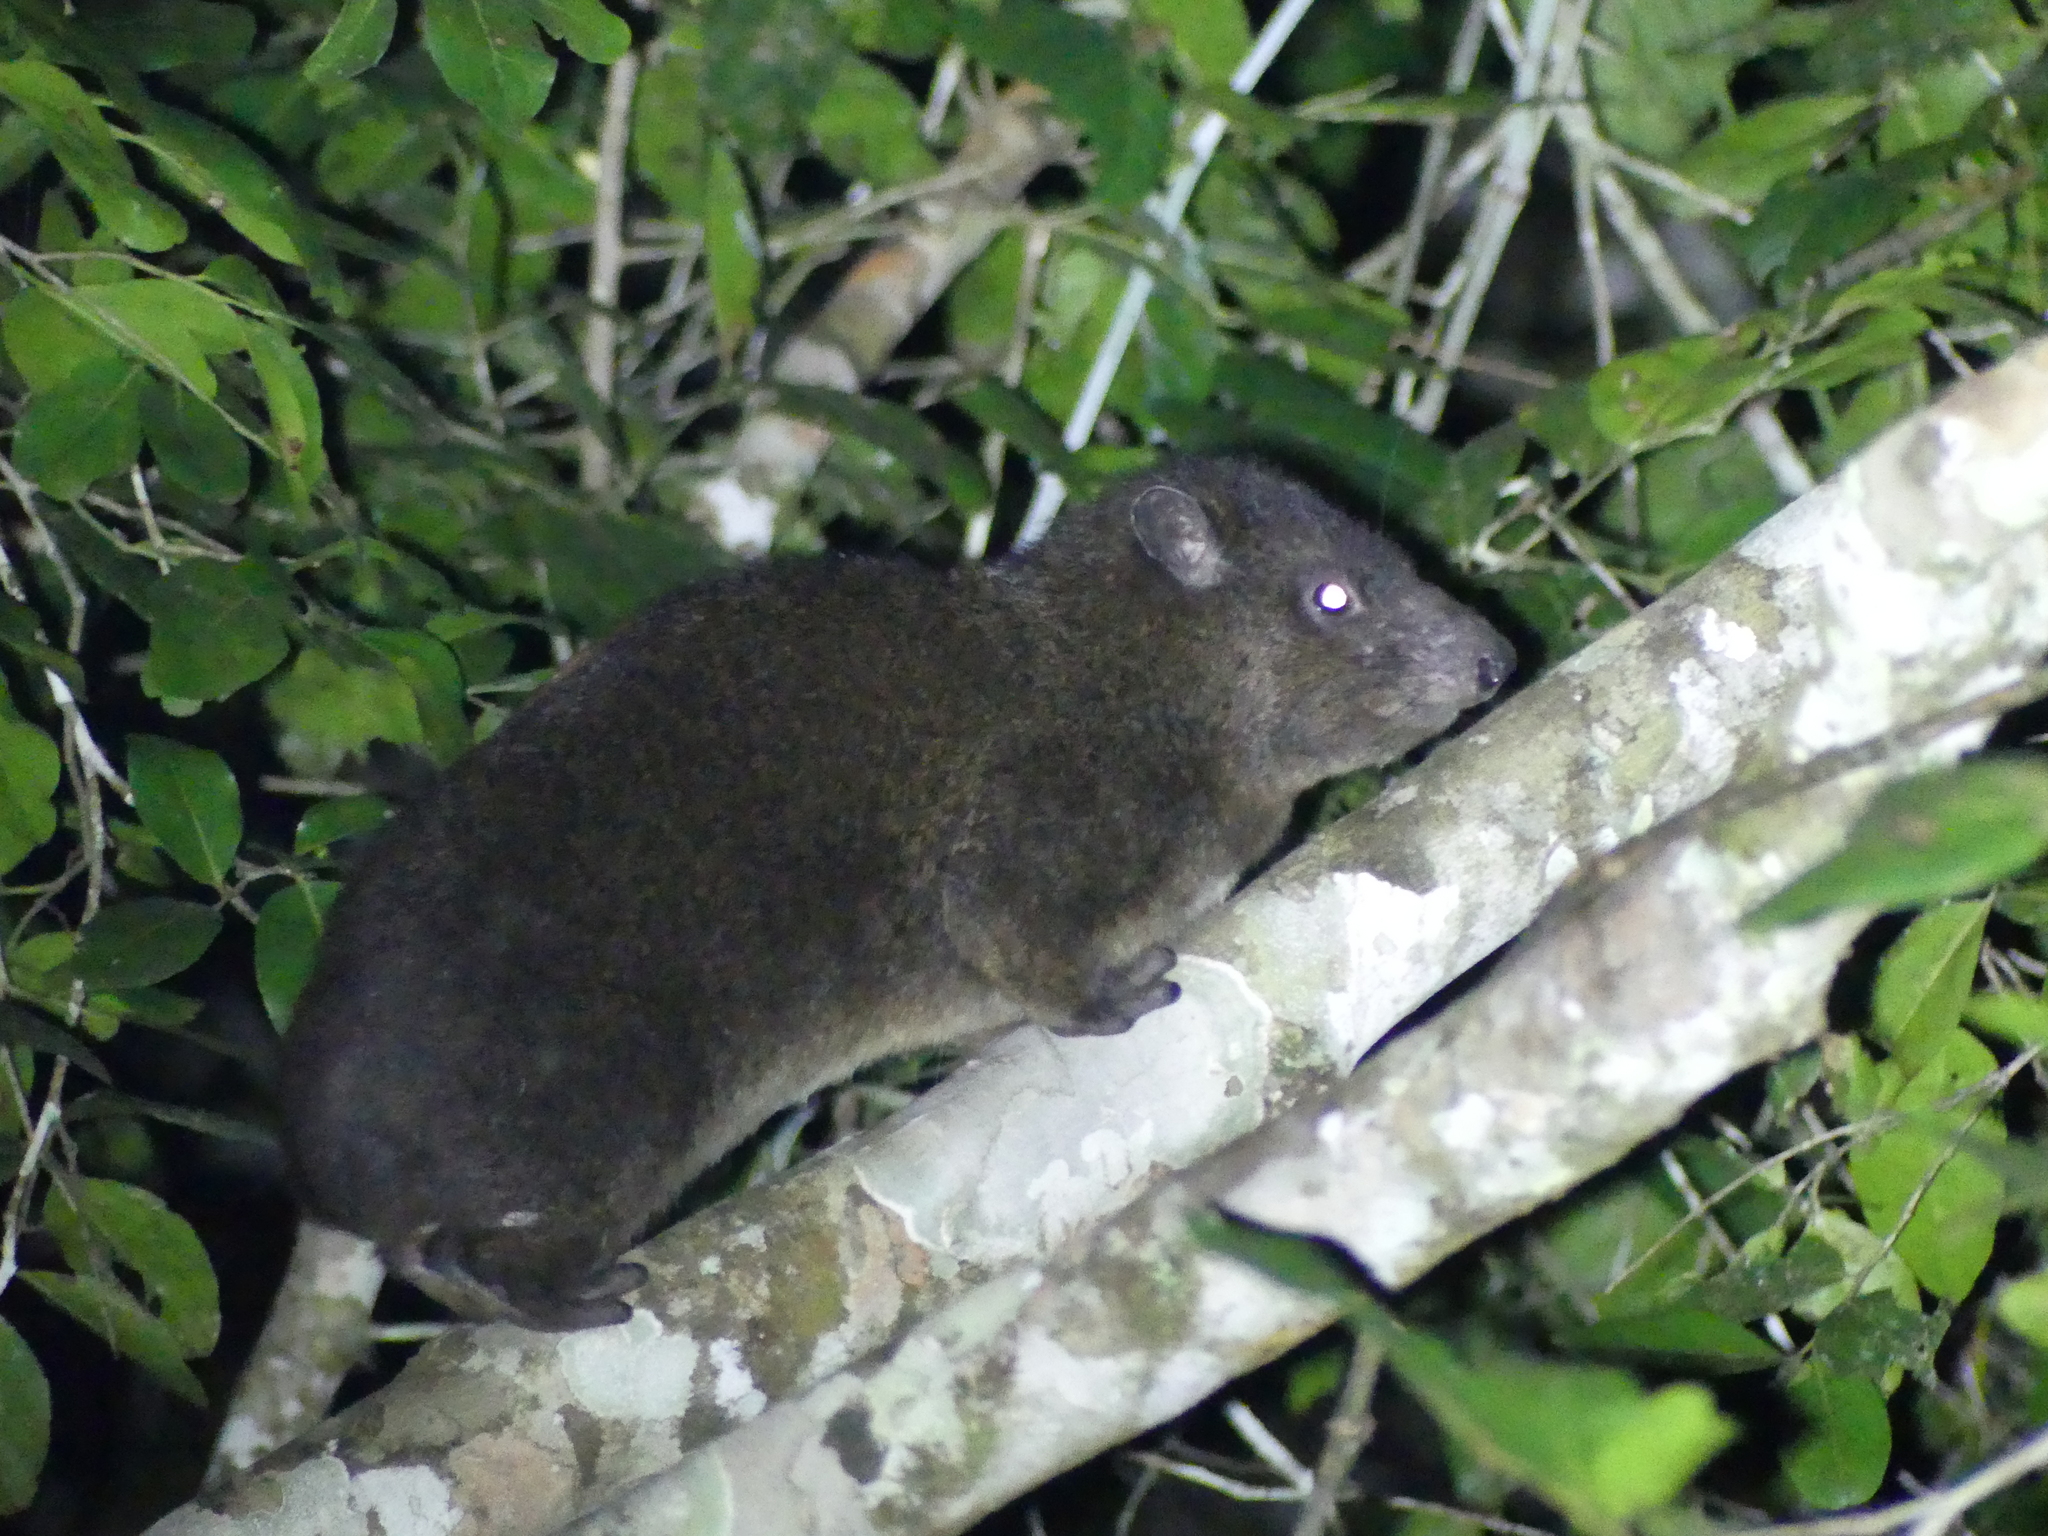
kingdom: Animalia
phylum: Chordata
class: Mammalia
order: Hyracoidea
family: Procaviidae
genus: Dendrohyrax
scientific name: Dendrohyrax arboreus
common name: Southern tree hyrax
